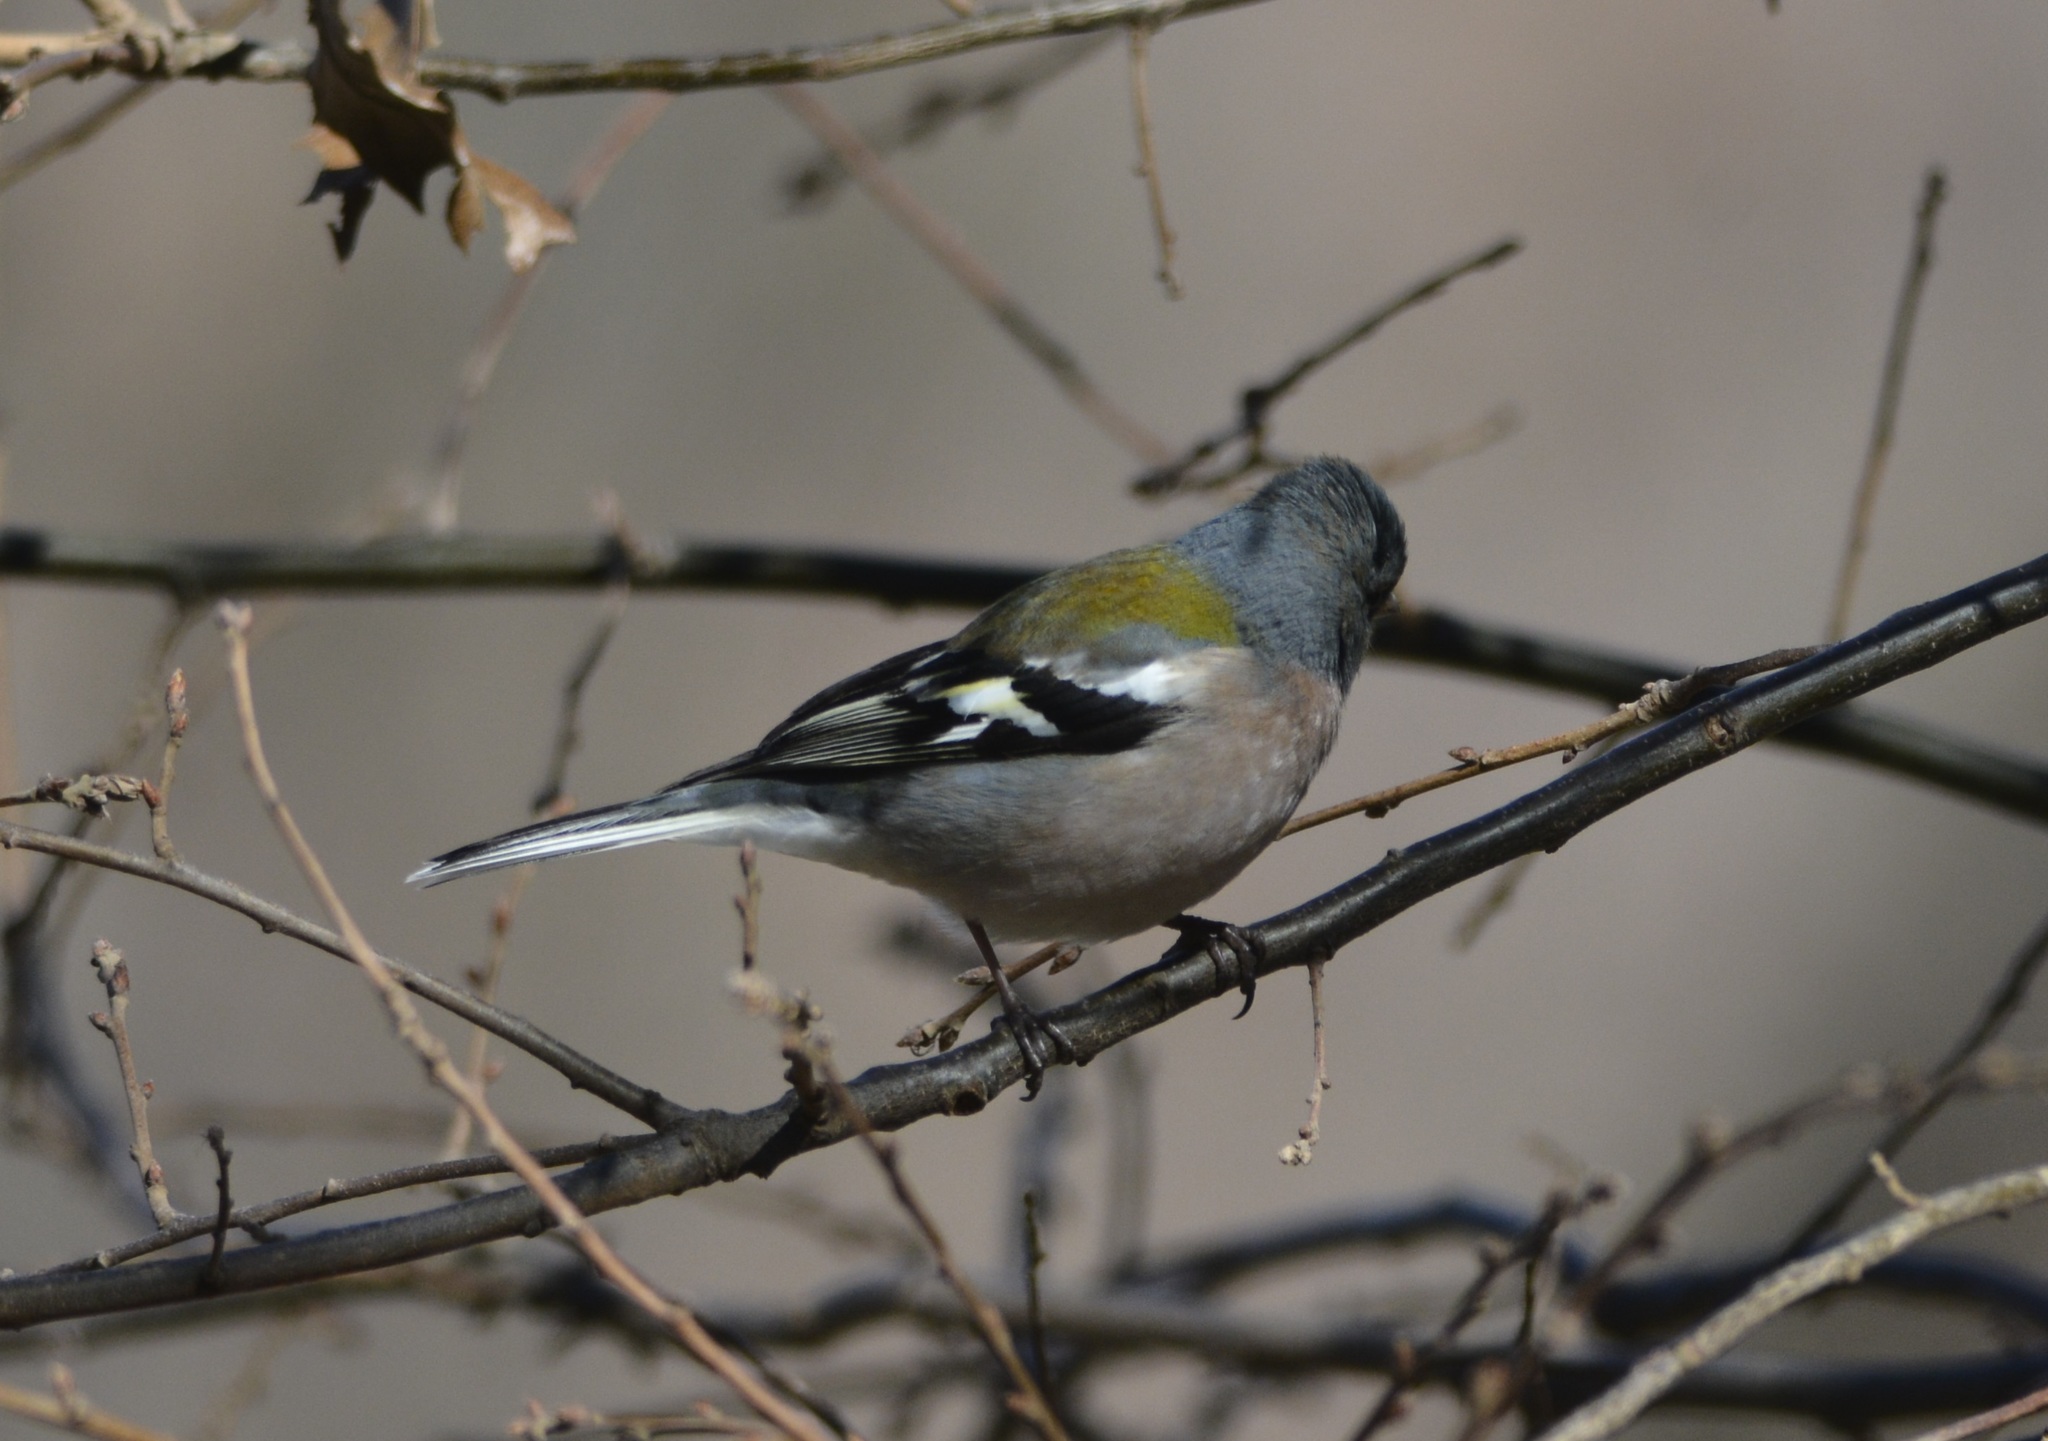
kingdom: Animalia
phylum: Chordata
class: Aves
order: Passeriformes
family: Fringillidae
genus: Fringilla
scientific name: Fringilla spodiogenys
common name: African chaffinch
